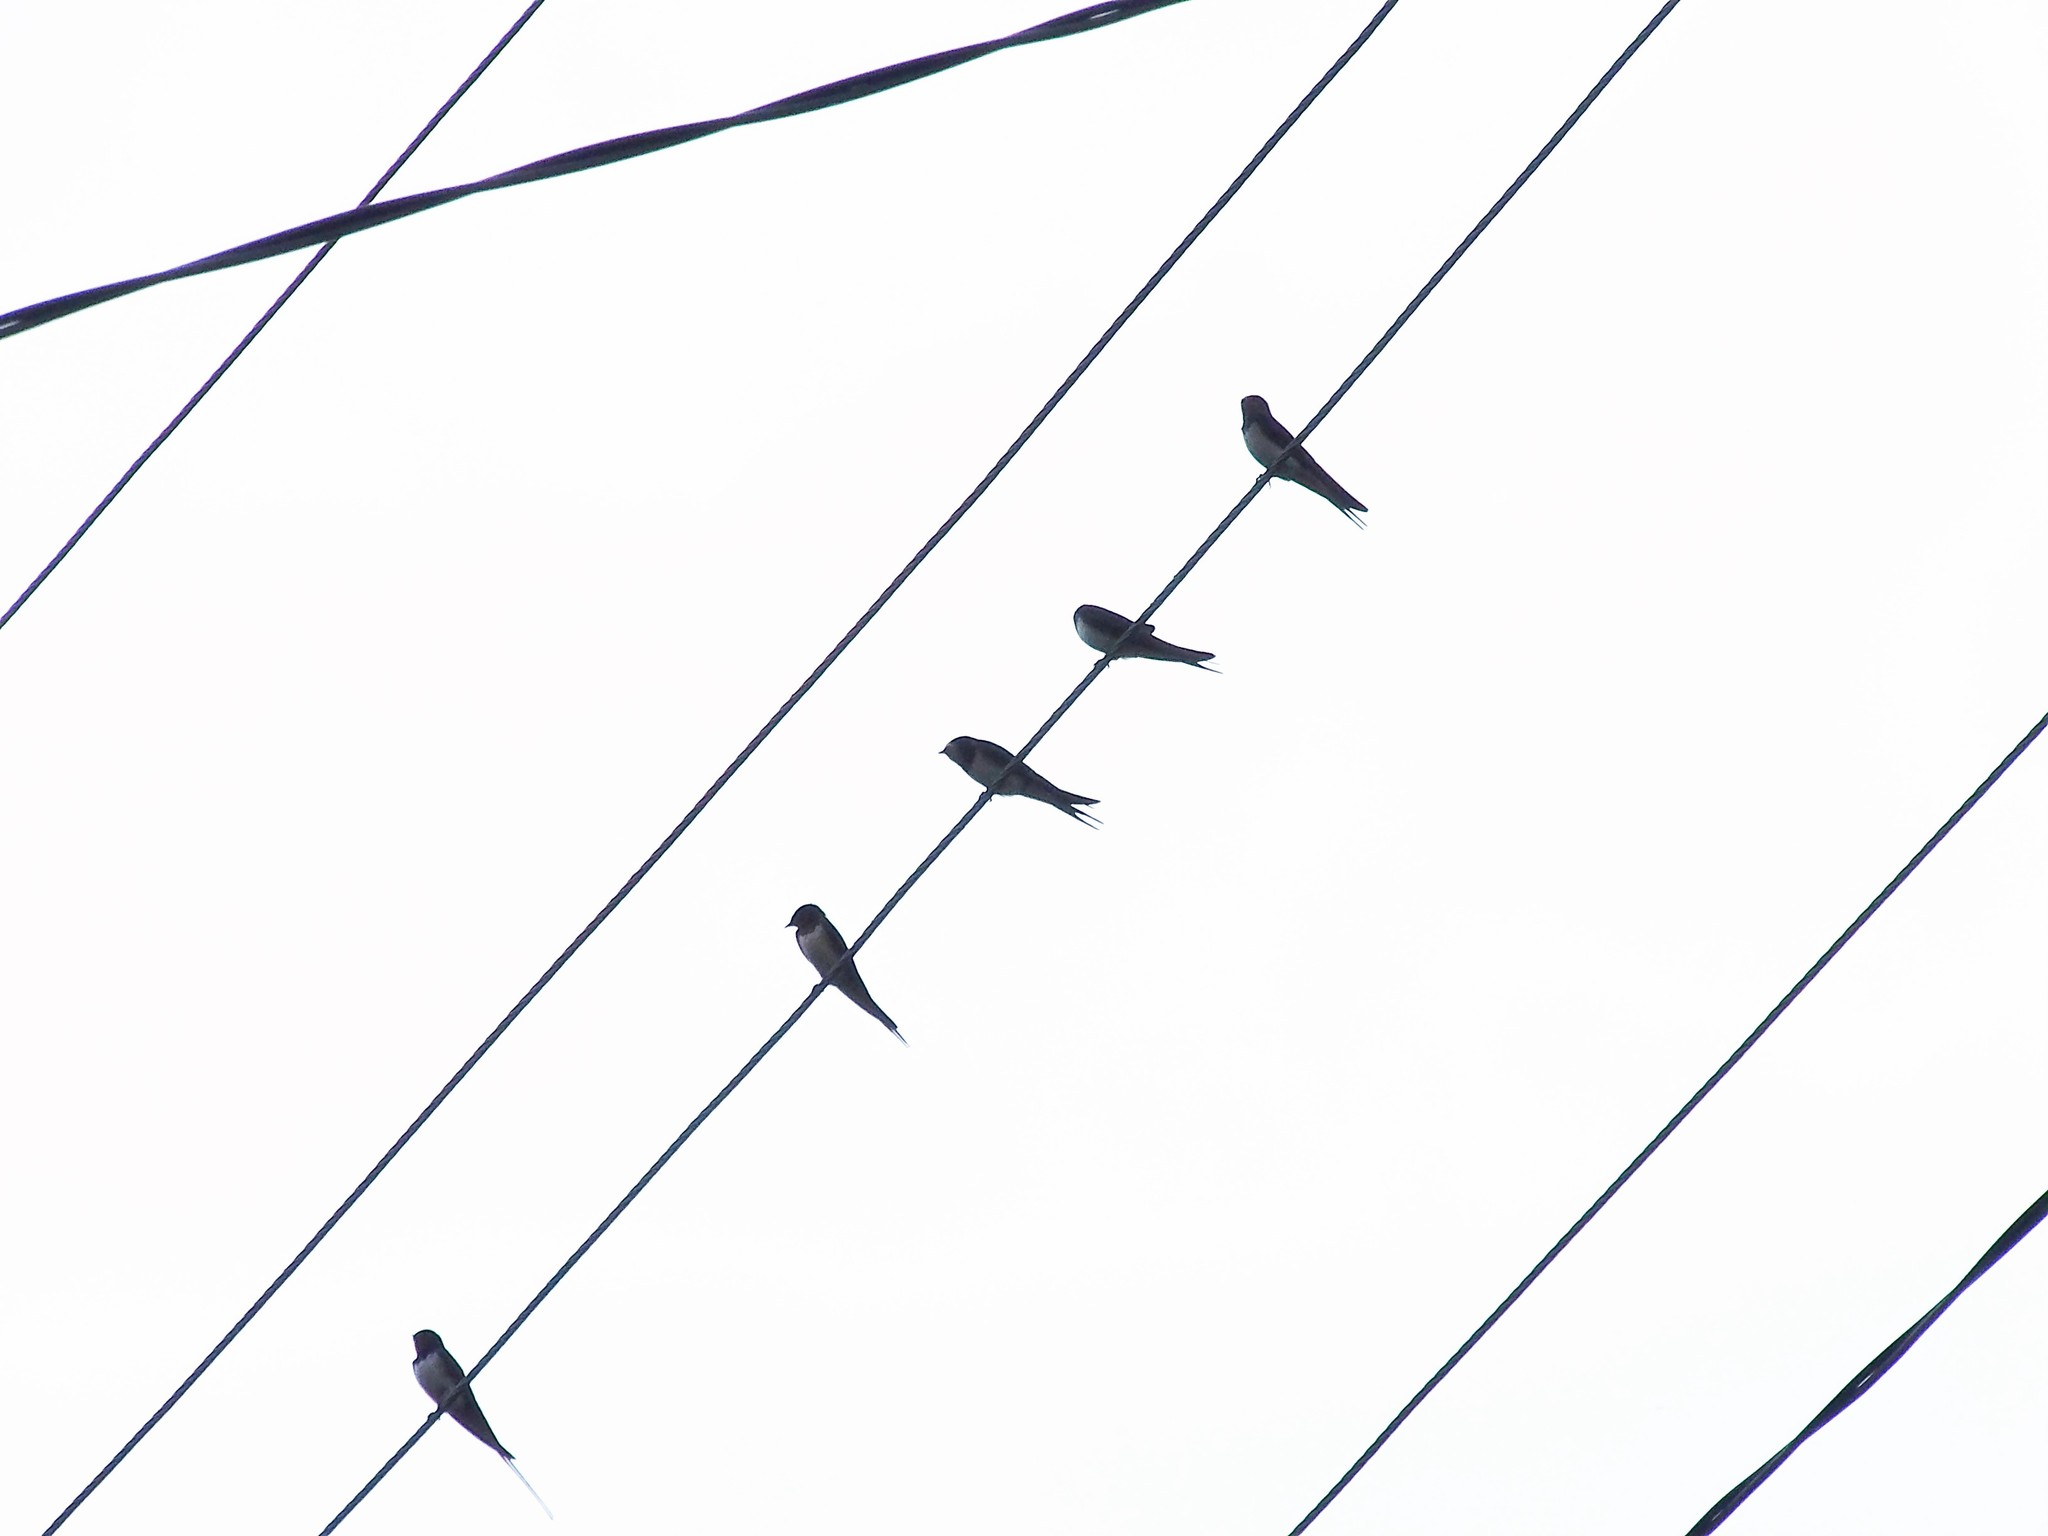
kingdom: Animalia
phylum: Chordata
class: Aves
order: Passeriformes
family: Hirundinidae
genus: Hirundo
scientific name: Hirundo rustica
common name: Barn swallow
